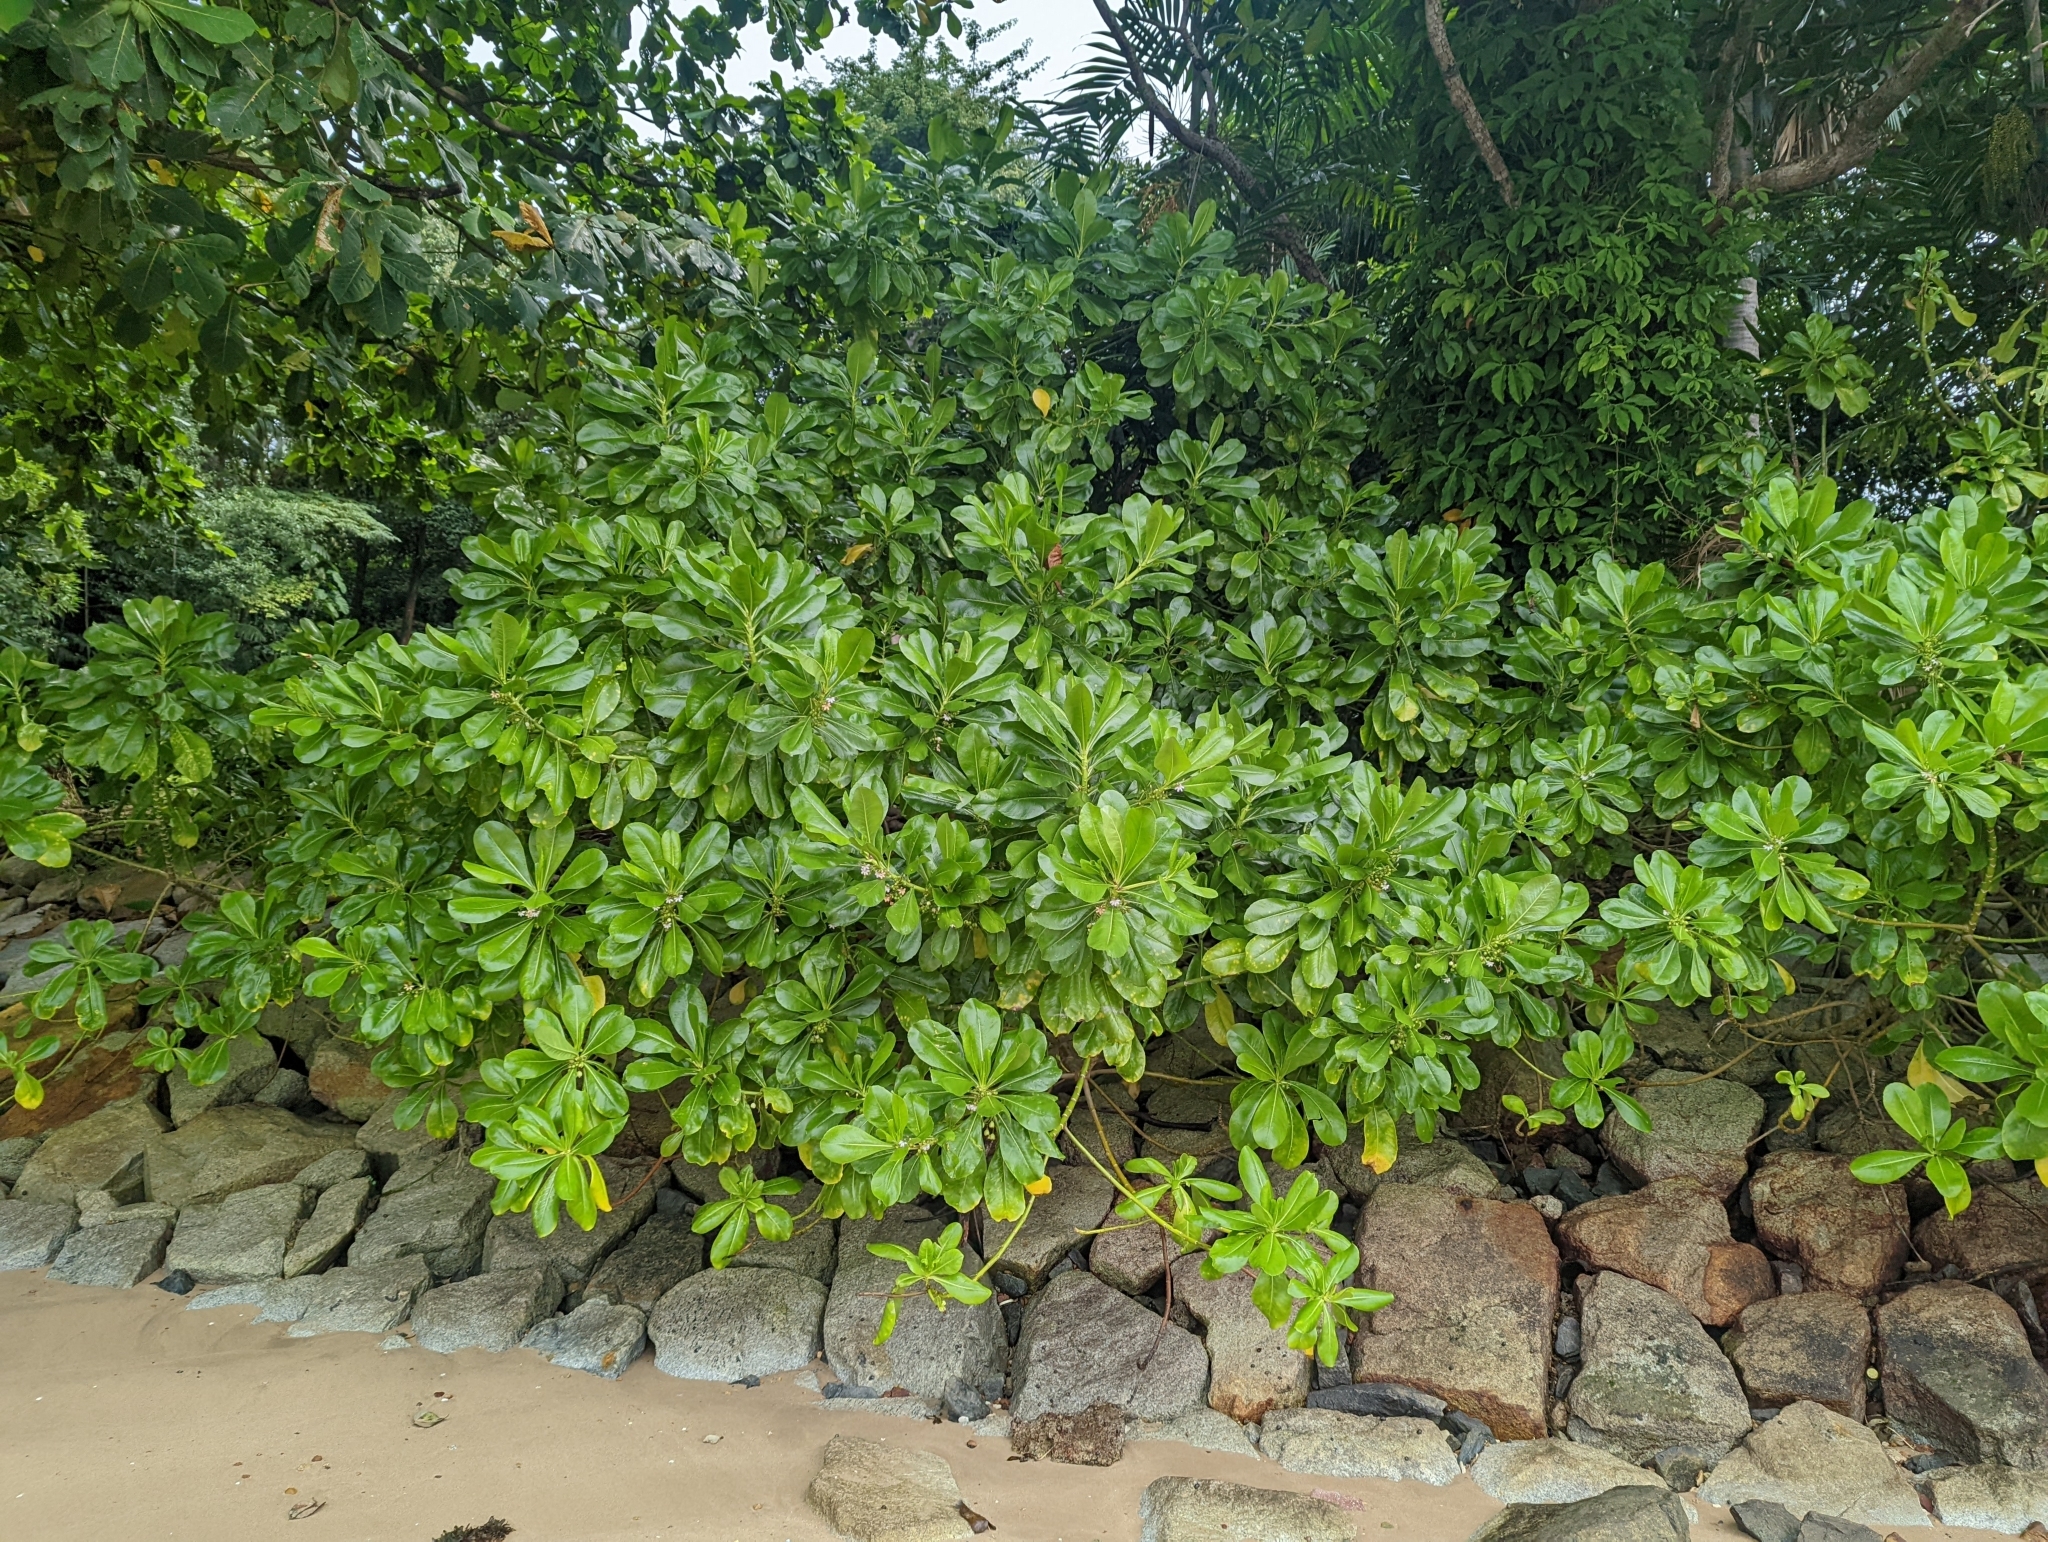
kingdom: Plantae
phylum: Tracheophyta
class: Magnoliopsida
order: Asterales
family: Goodeniaceae
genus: Scaevola
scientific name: Scaevola taccada
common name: Sea lettucetree
